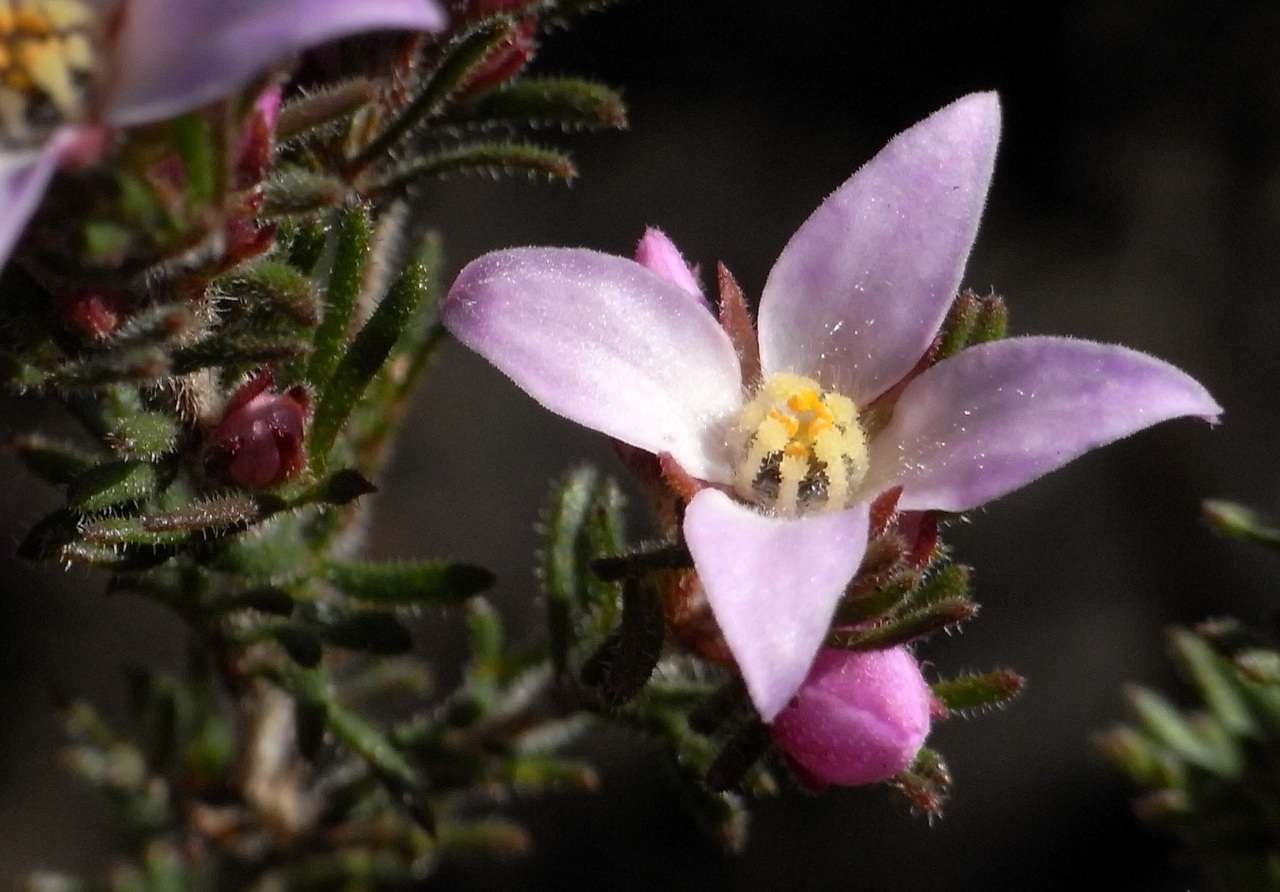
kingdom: Plantae
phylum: Tracheophyta
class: Magnoliopsida
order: Sapindales
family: Rutaceae
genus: Boronia
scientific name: Boronia pilosa
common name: Hairy boronia
